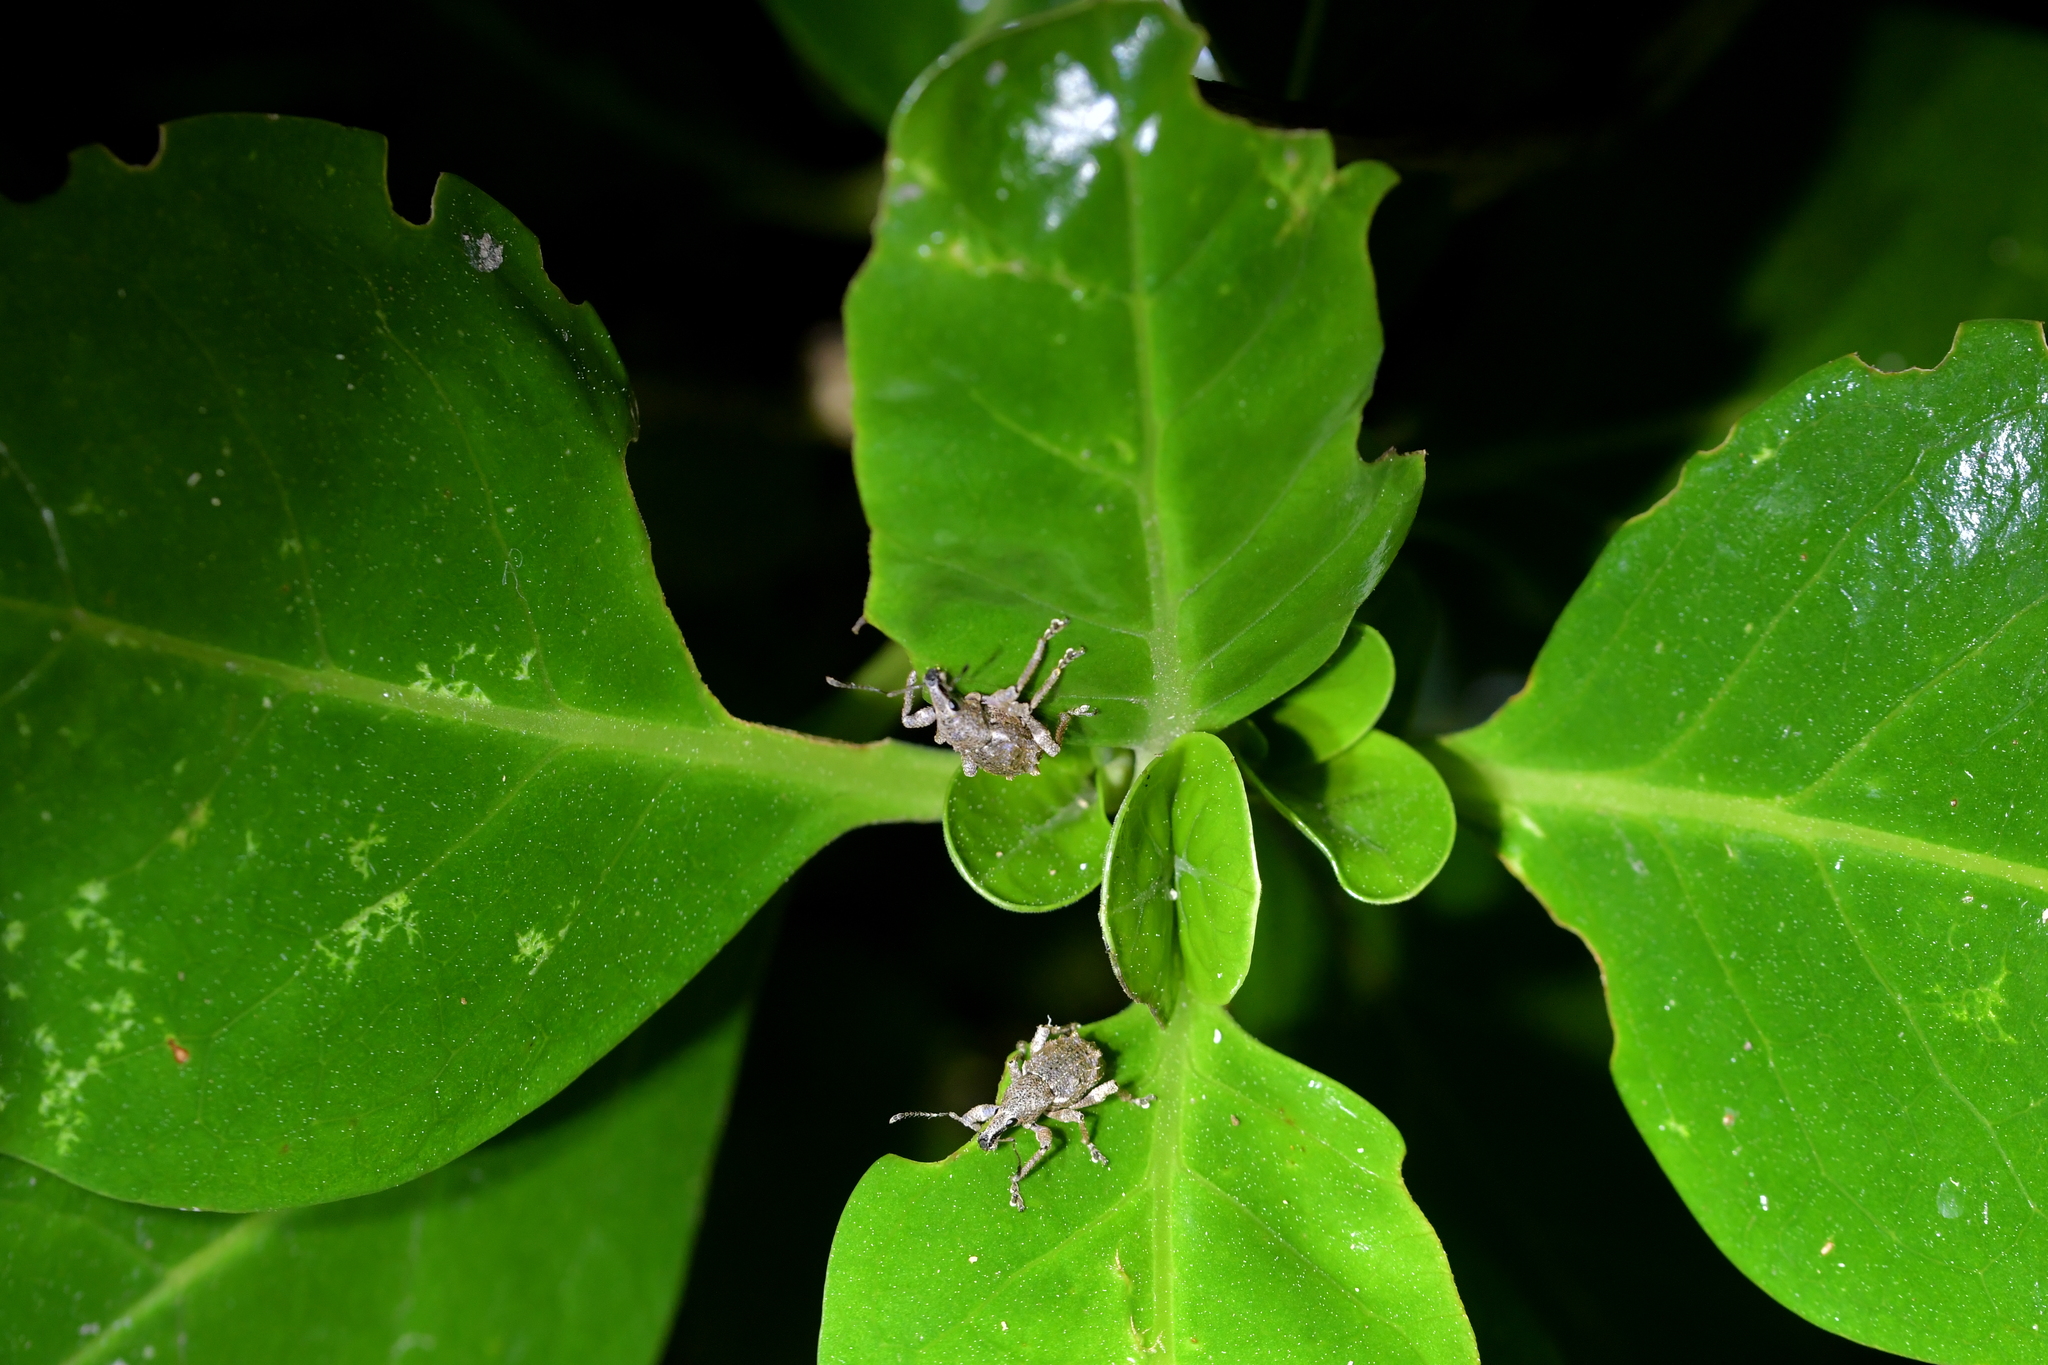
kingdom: Animalia
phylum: Arthropoda
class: Insecta
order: Coleoptera
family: Curculionidae
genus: Catoptes
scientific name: Catoptes binodis
